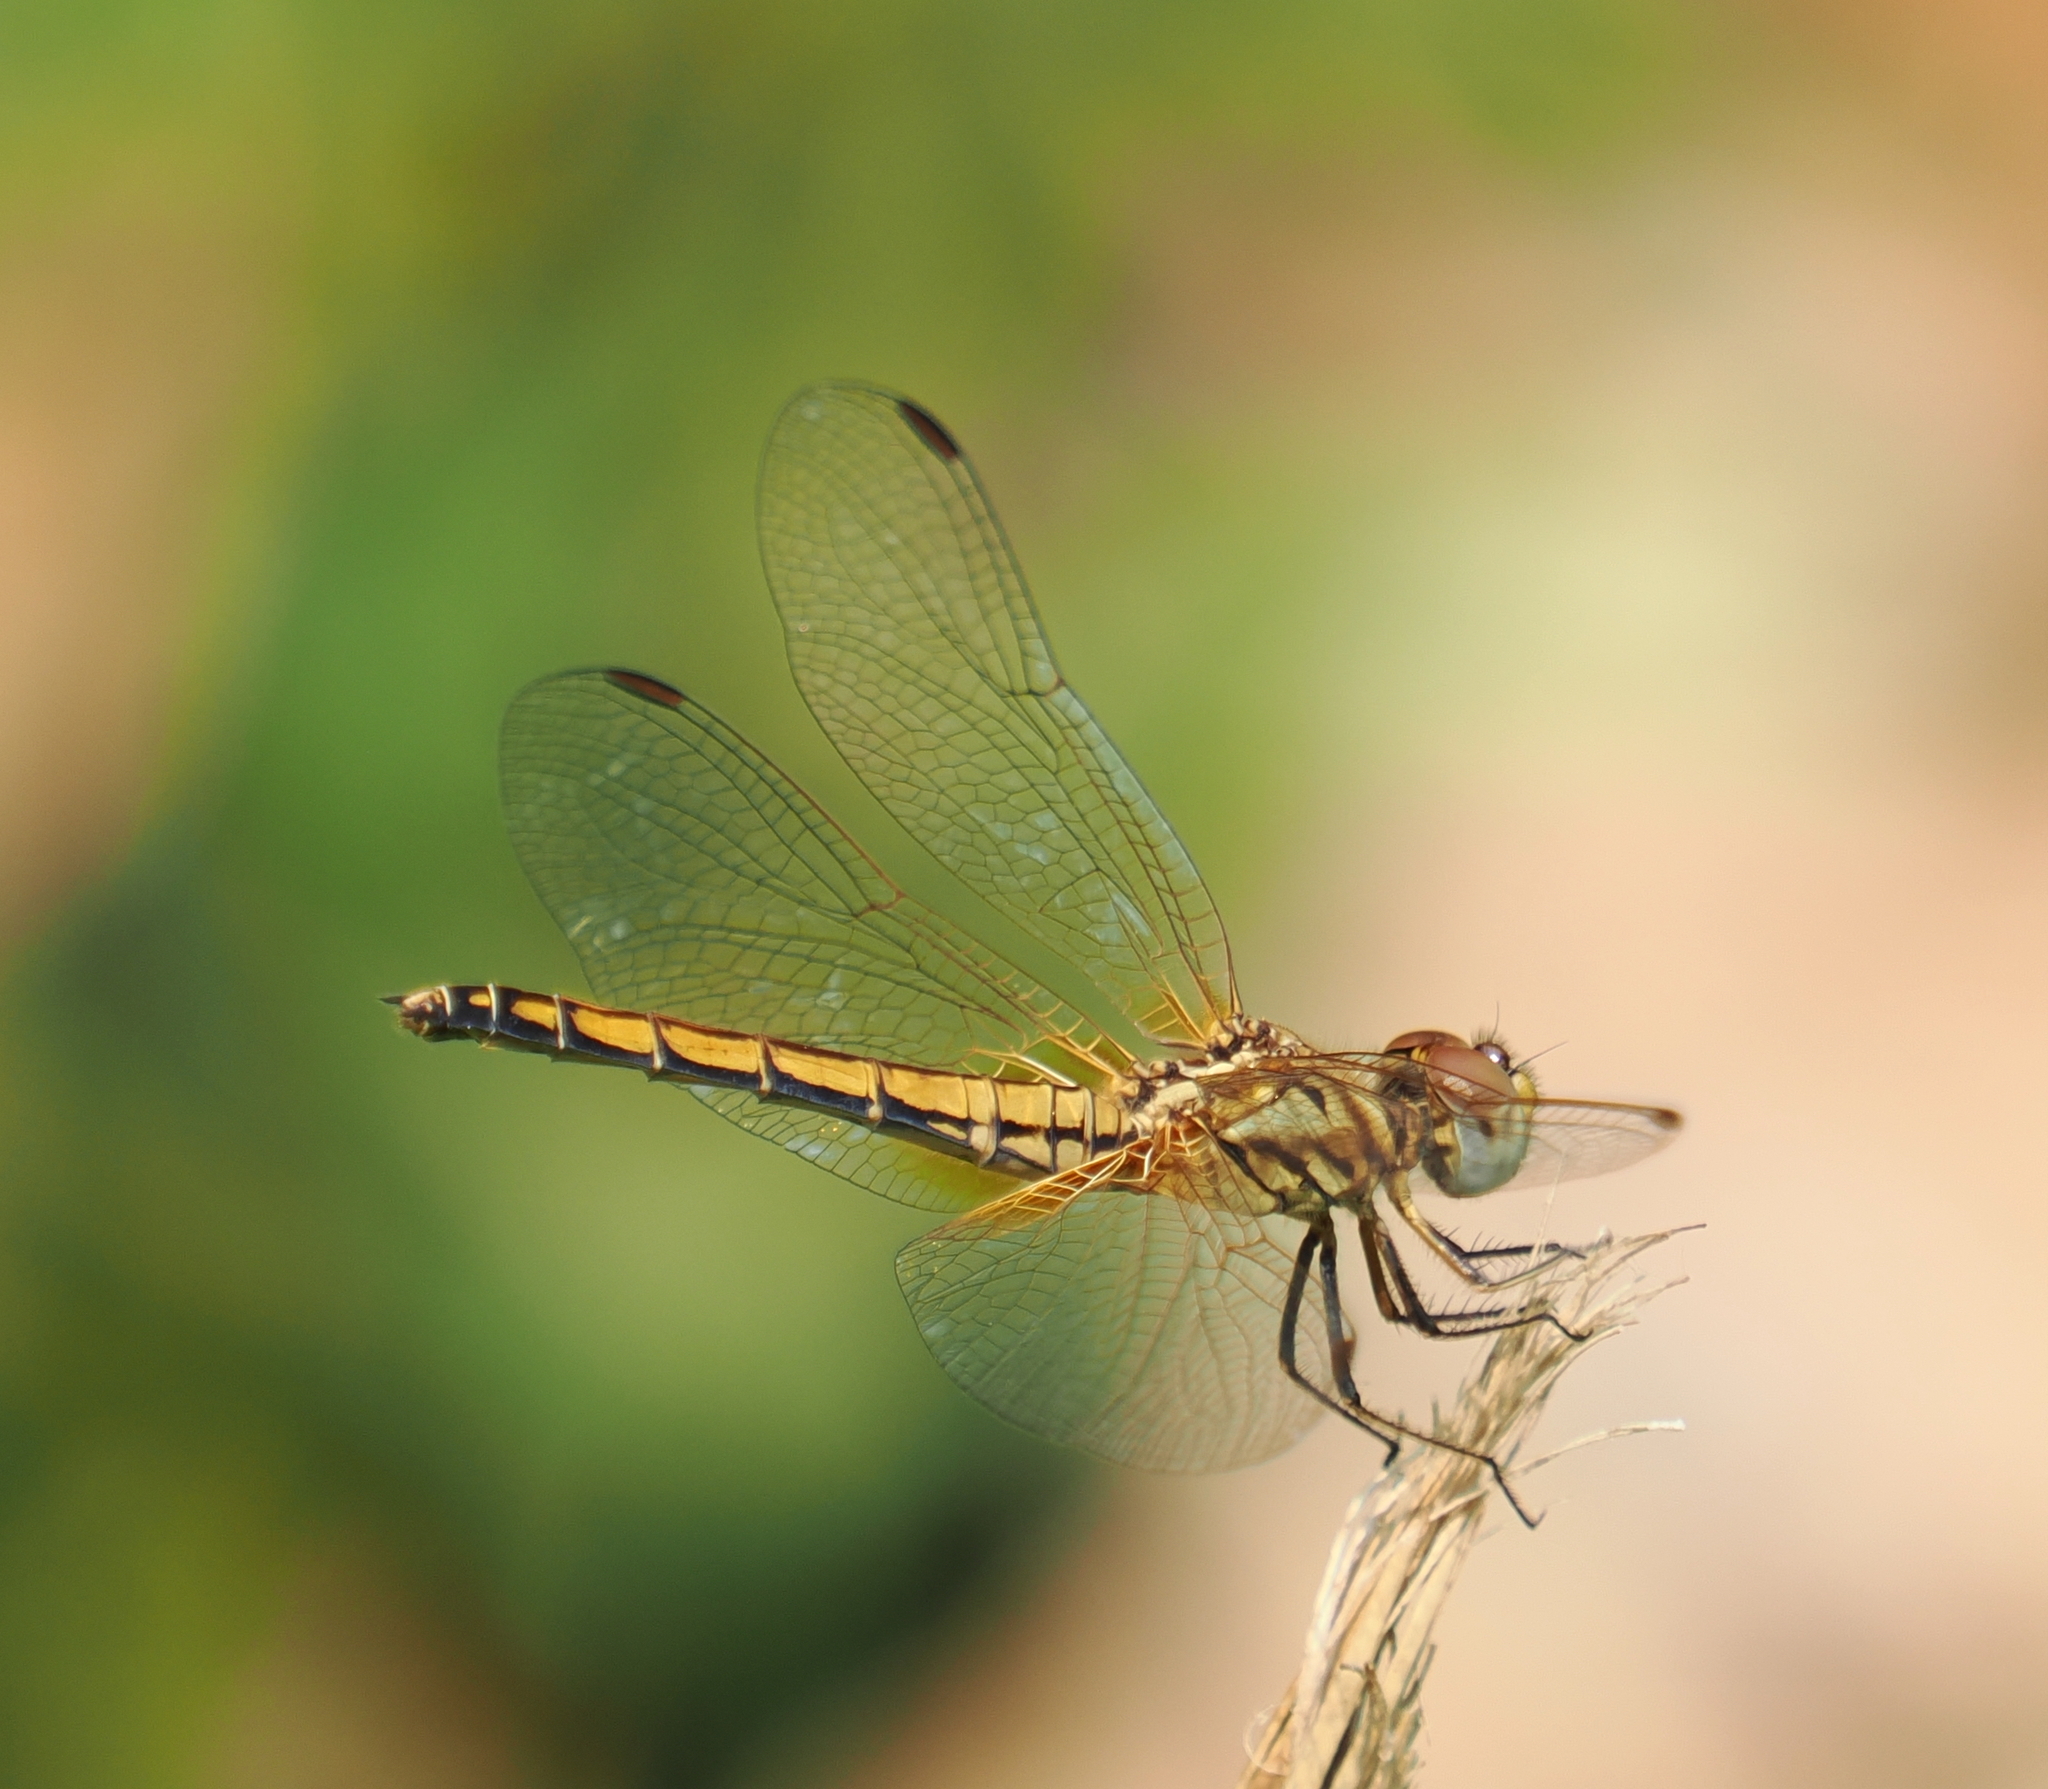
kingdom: Animalia
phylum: Arthropoda
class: Insecta
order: Odonata
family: Libellulidae
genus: Trithemis
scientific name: Trithemis aurora
